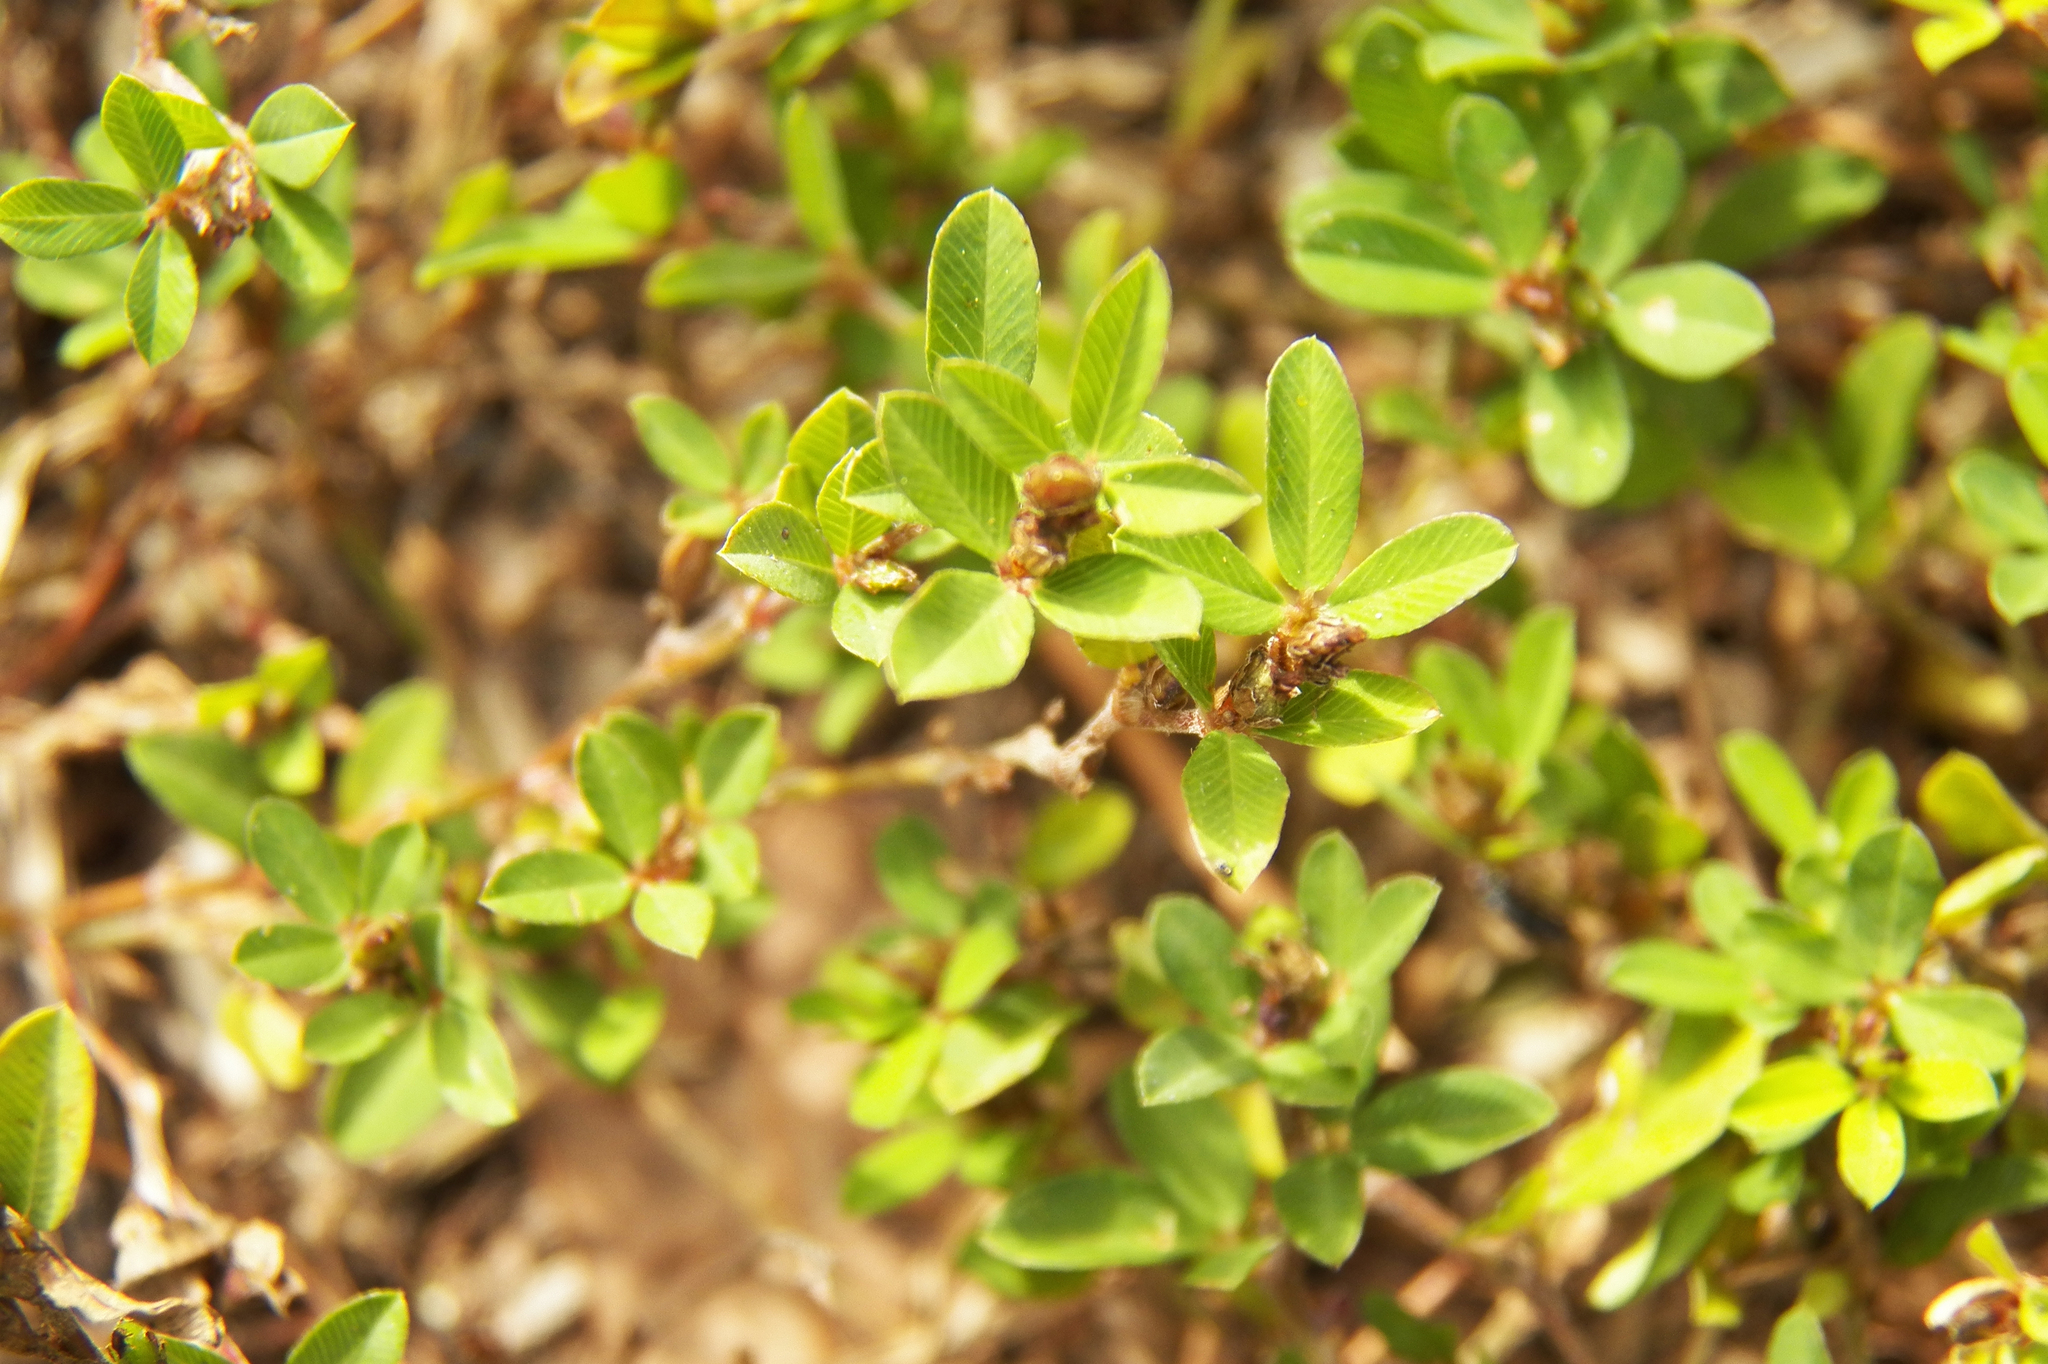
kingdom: Plantae
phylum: Tracheophyta
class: Magnoliopsida
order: Fabales
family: Fabaceae
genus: Kummerowia
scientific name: Kummerowia striata
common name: Japanese clover
